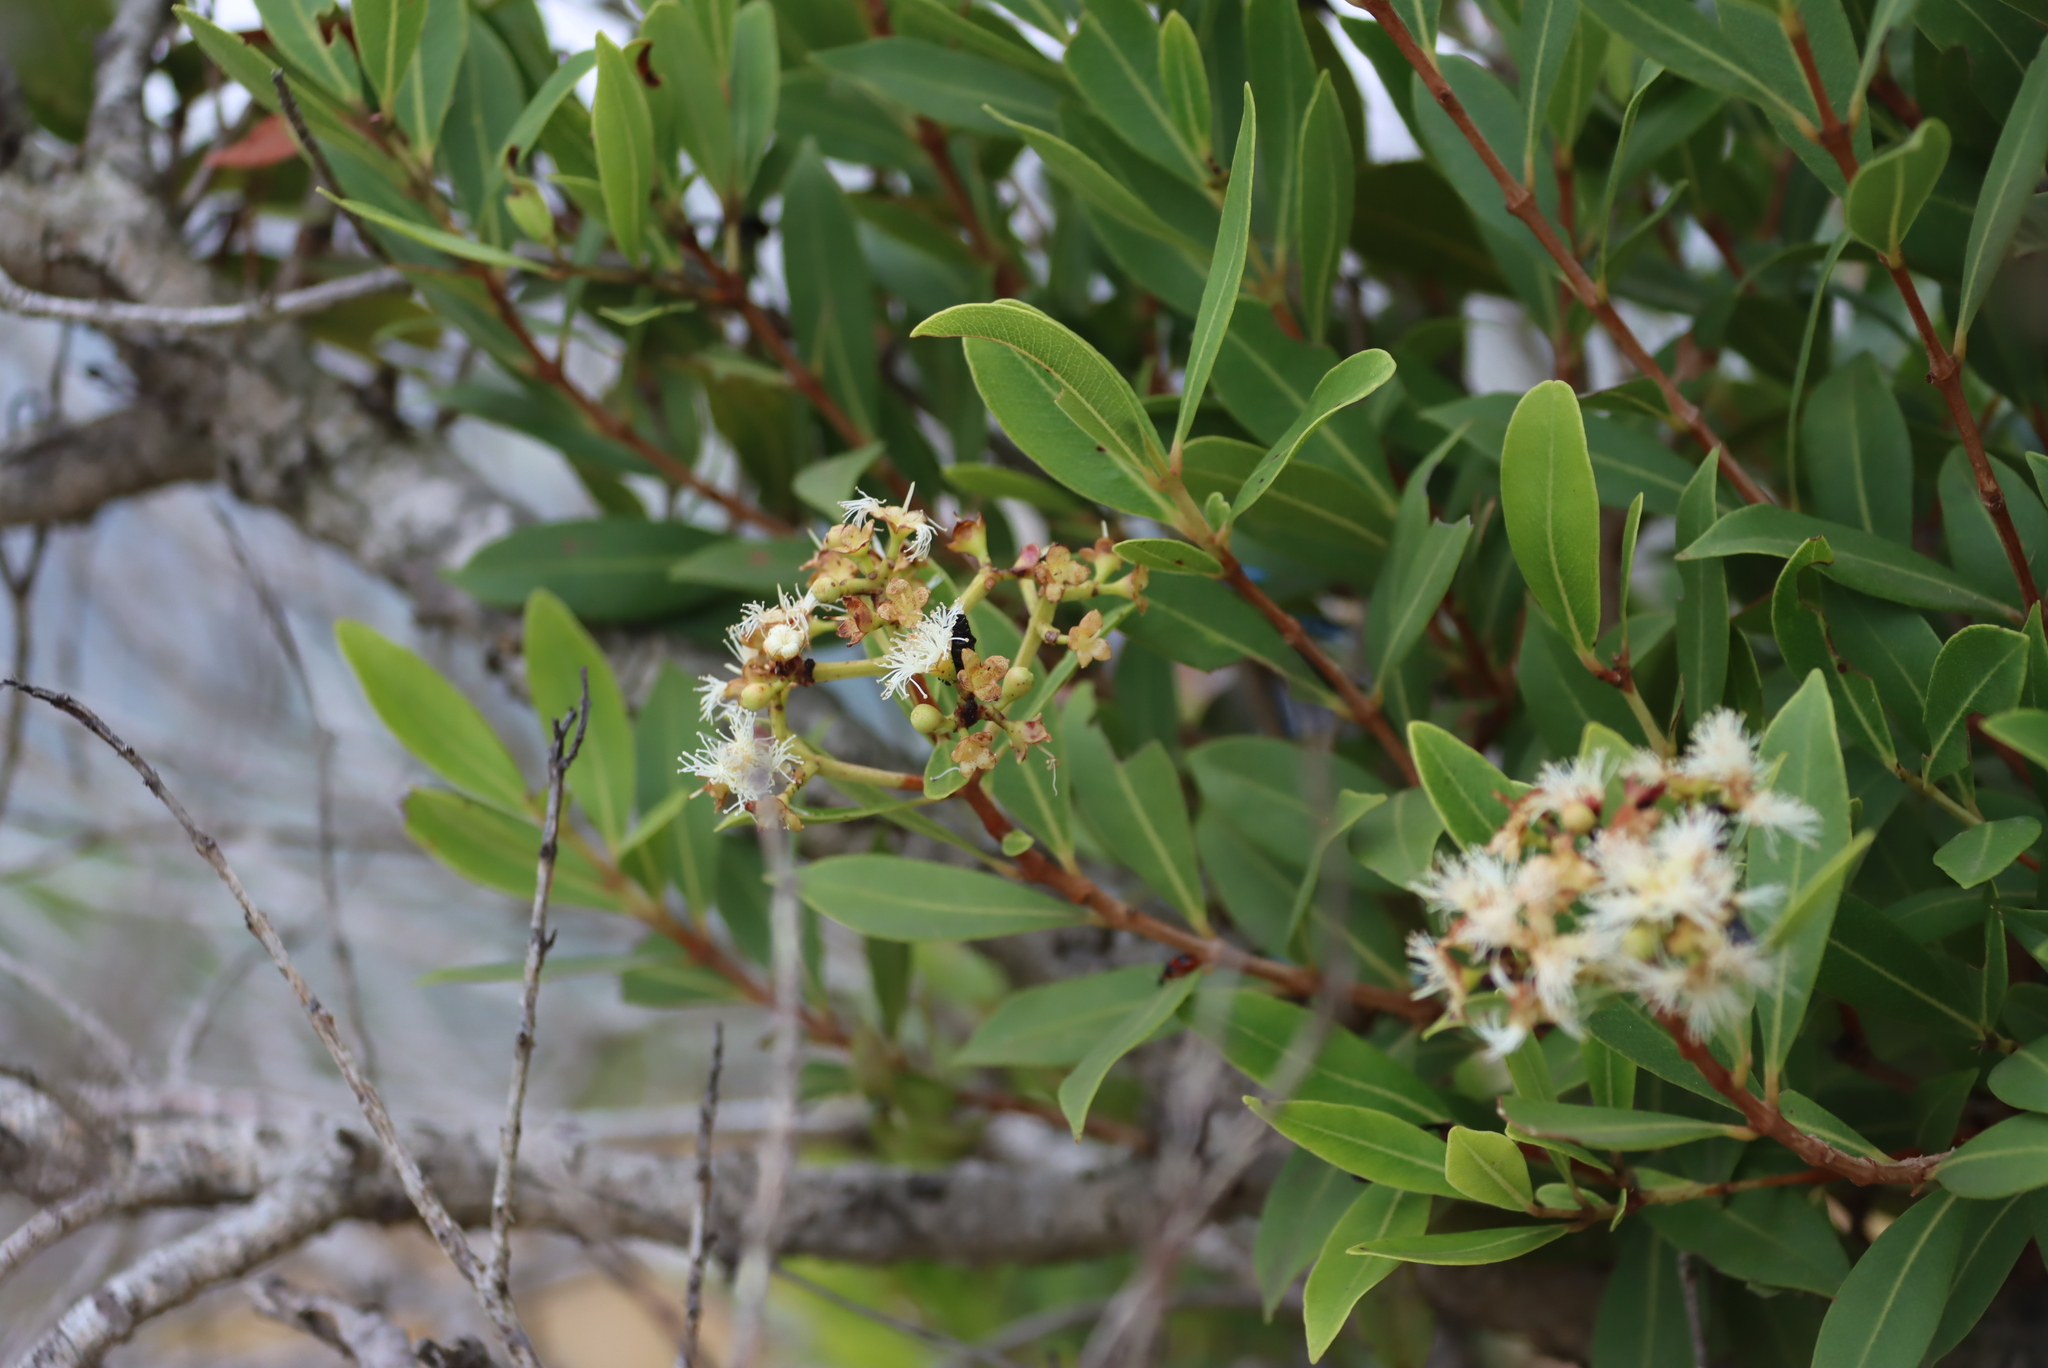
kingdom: Plantae
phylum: Tracheophyta
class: Magnoliopsida
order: Myrtales
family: Myrtaceae
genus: Syzygium
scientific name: Syzygium legatii
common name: Mountain waterberry
